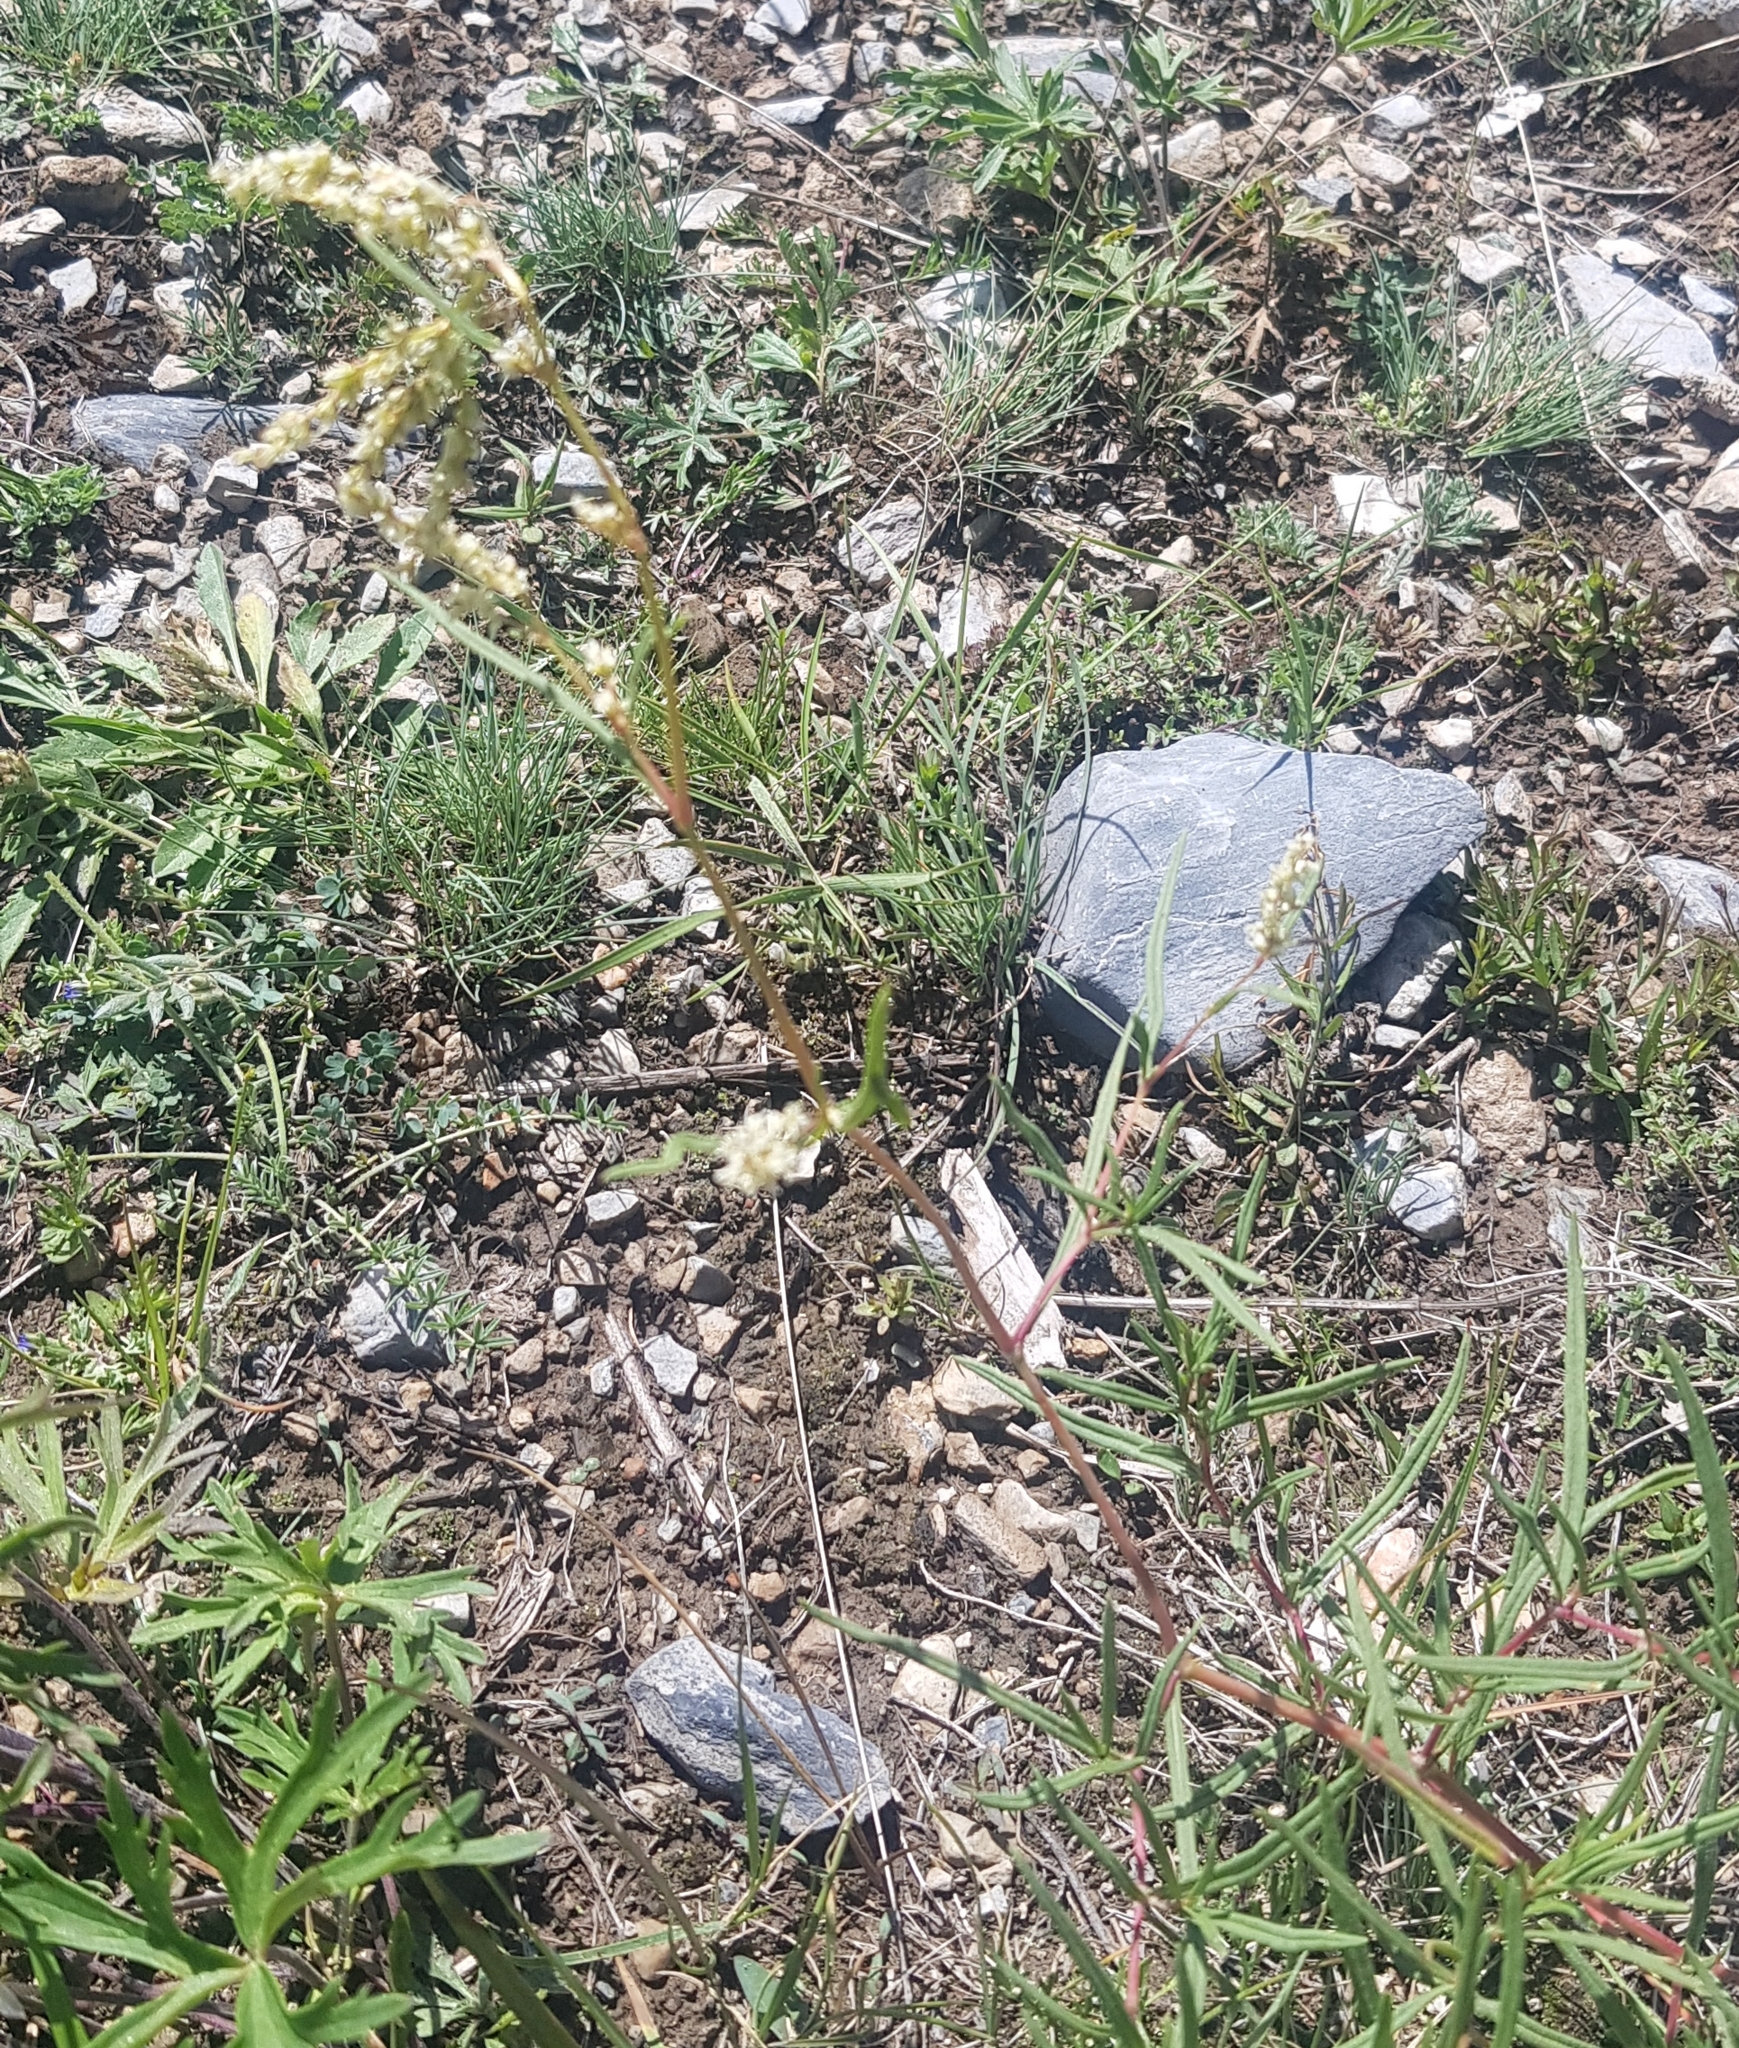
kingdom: Plantae
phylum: Tracheophyta
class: Magnoliopsida
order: Caryophyllales
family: Polygonaceae
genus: Koenigia
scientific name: Koenigia alpina
